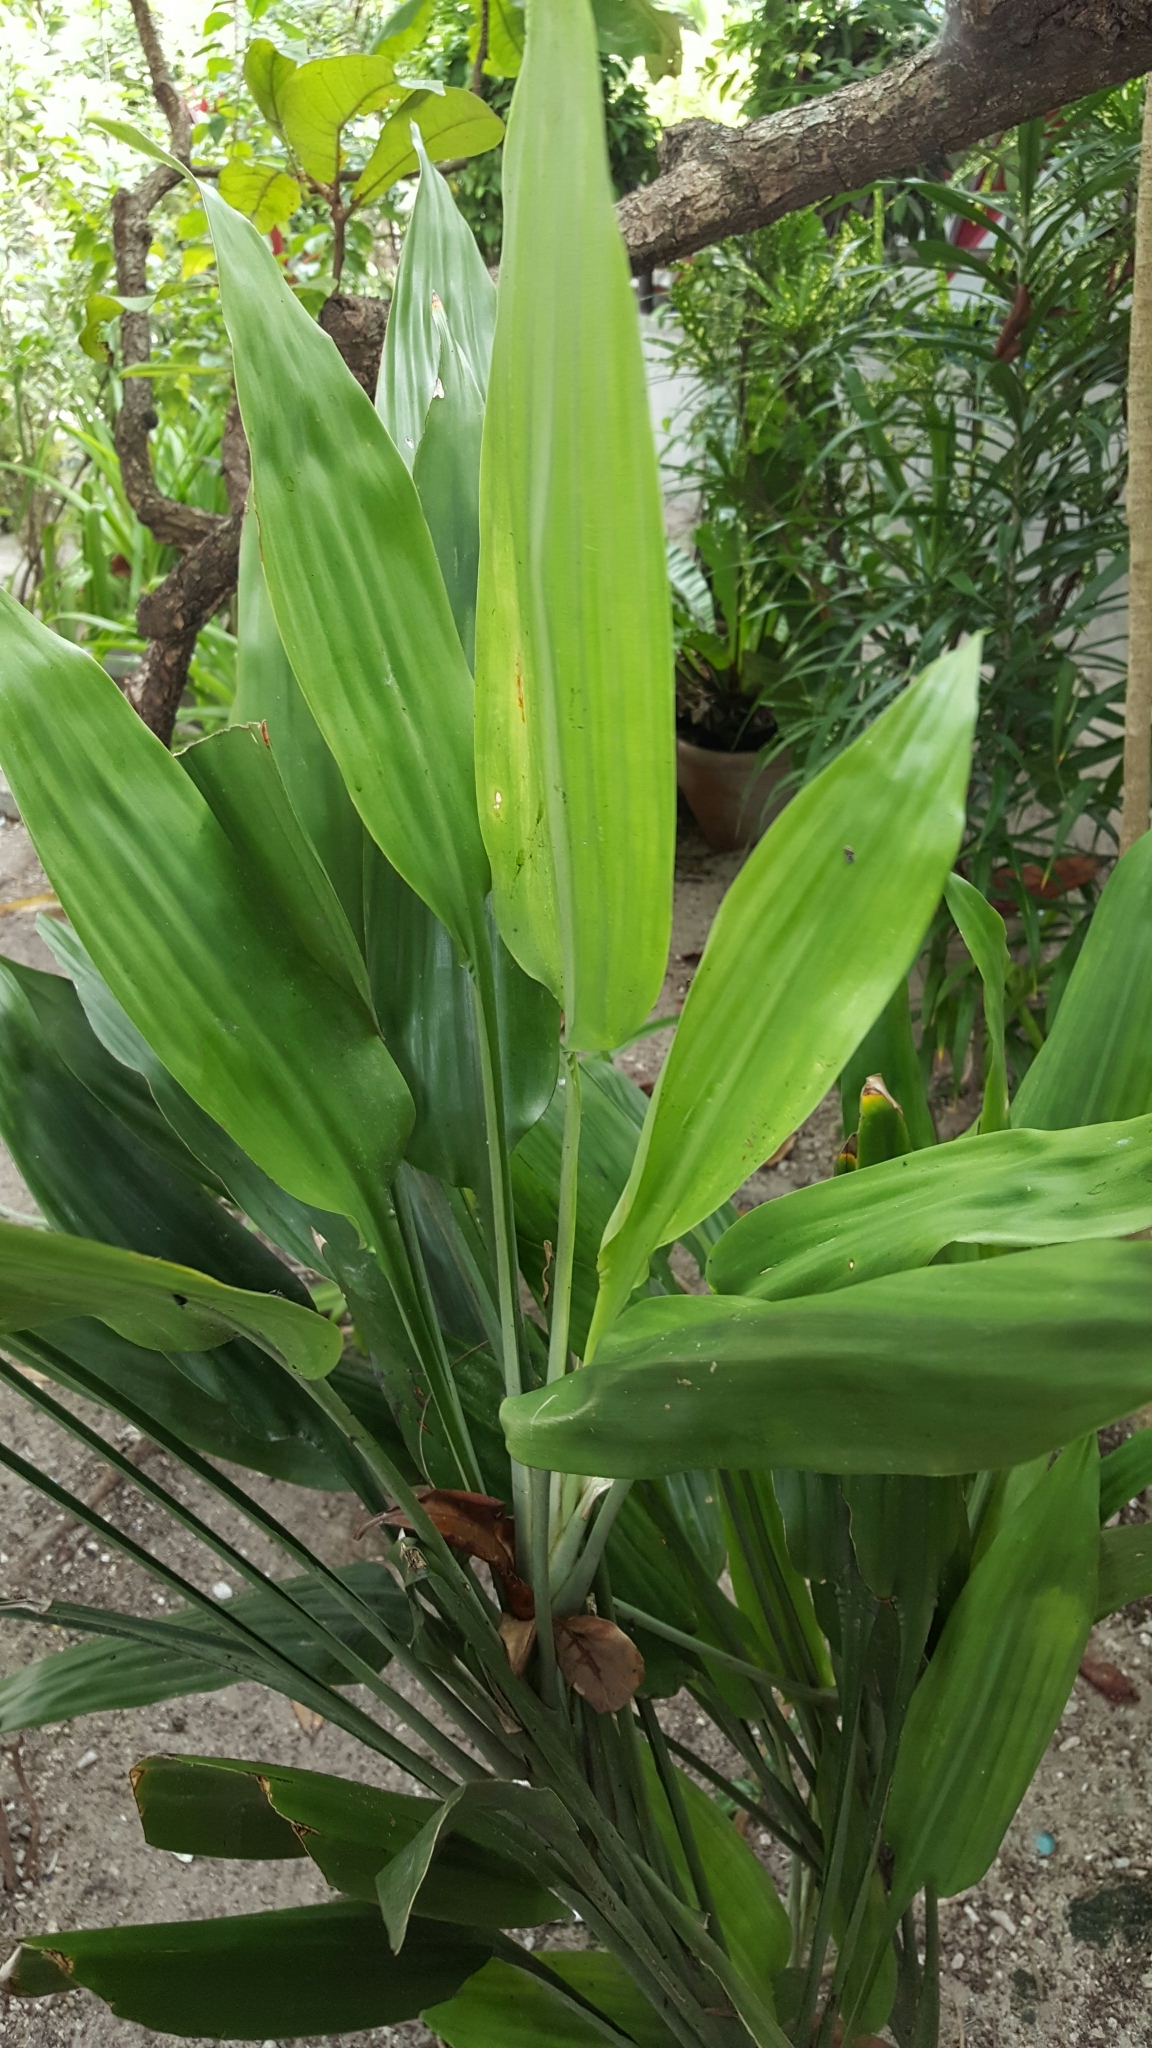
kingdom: Plantae
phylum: Tracheophyta
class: Liliopsida
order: Asparagales
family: Asparagaceae
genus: Dracaena
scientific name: Dracaena aubryana
